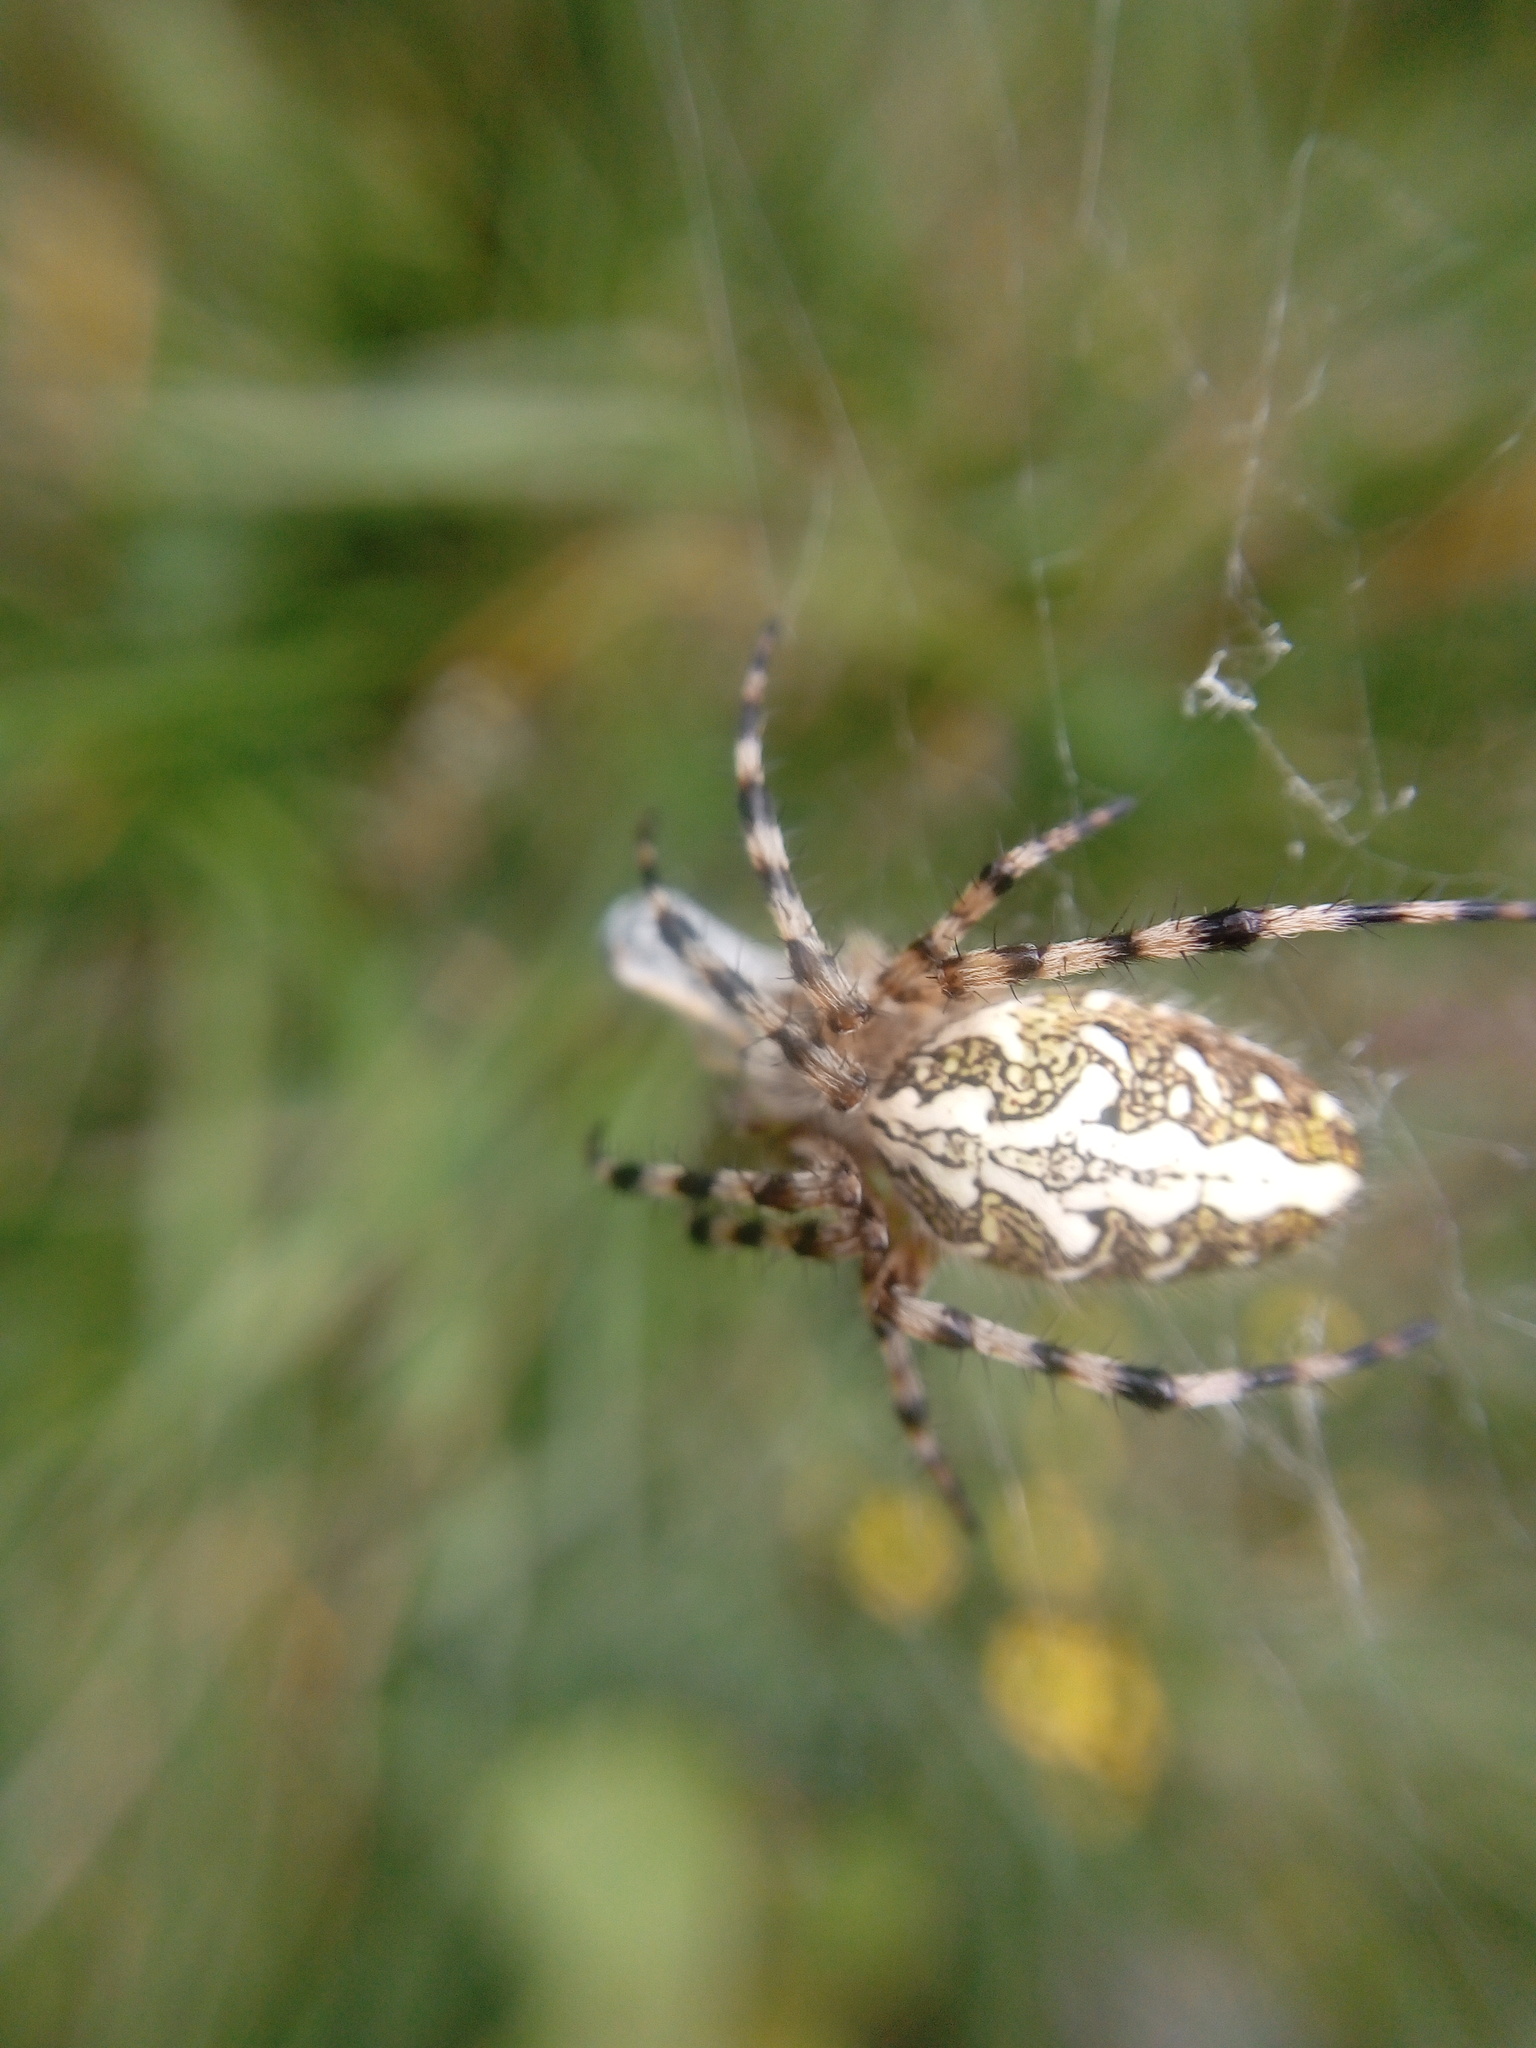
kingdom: Animalia
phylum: Arthropoda
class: Arachnida
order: Araneae
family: Araneidae
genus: Aculepeira
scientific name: Aculepeira ceropegia
